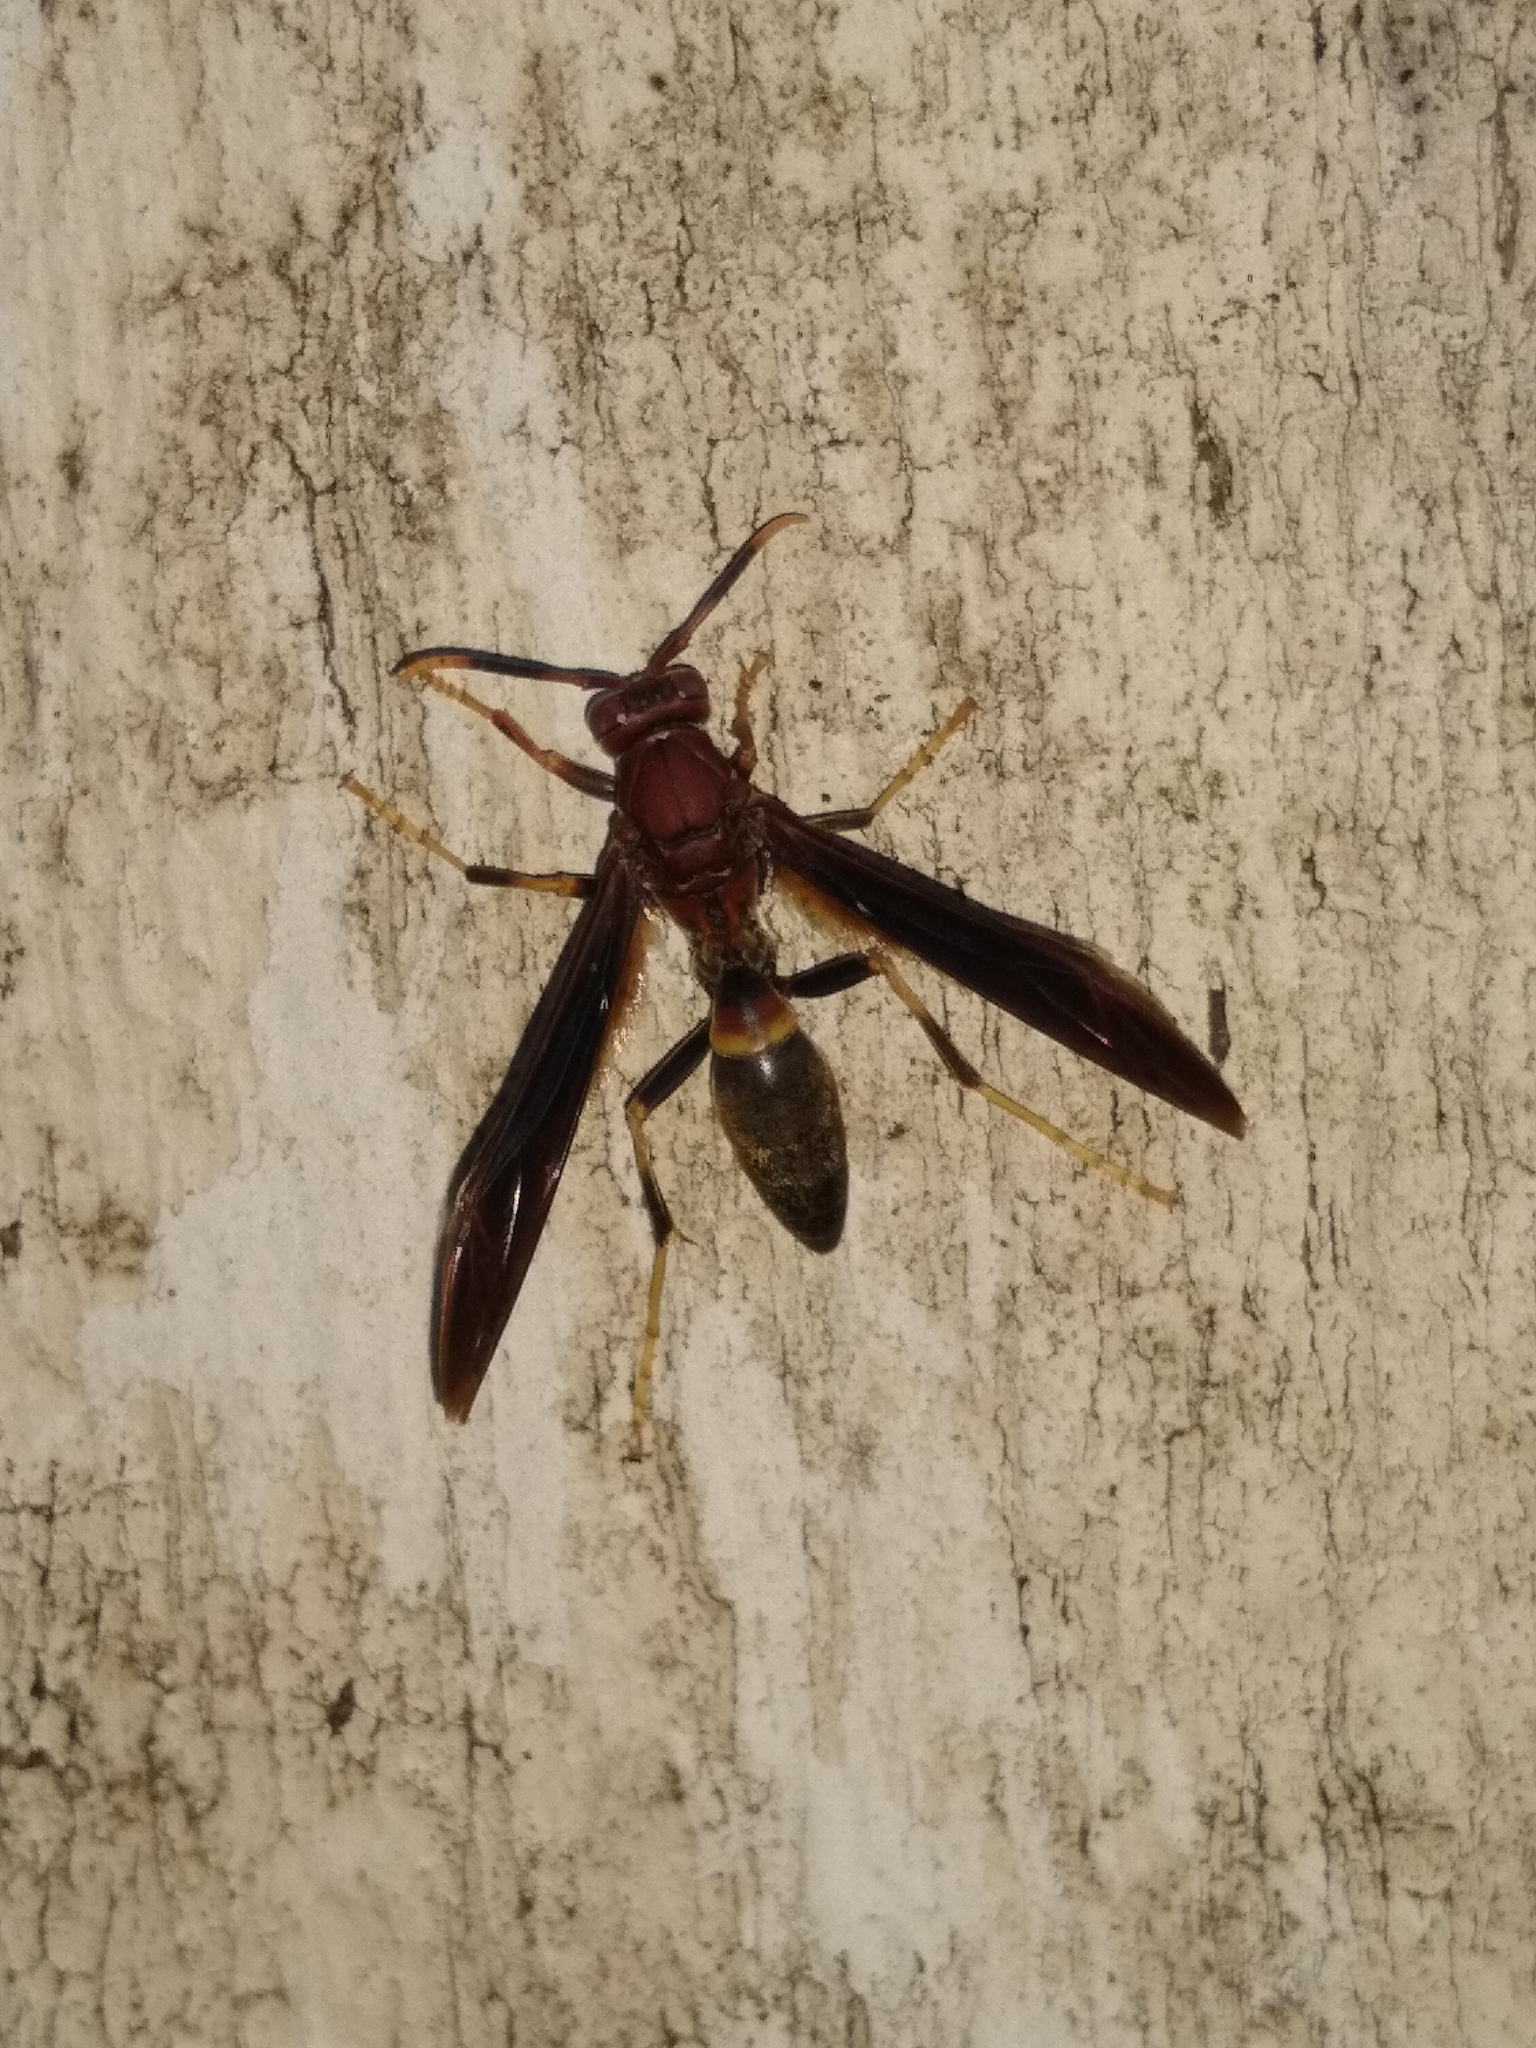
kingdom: Animalia
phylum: Arthropoda
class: Insecta
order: Hymenoptera
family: Eumenidae
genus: Polistes
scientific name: Polistes annularis
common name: Ringed paper wasp
